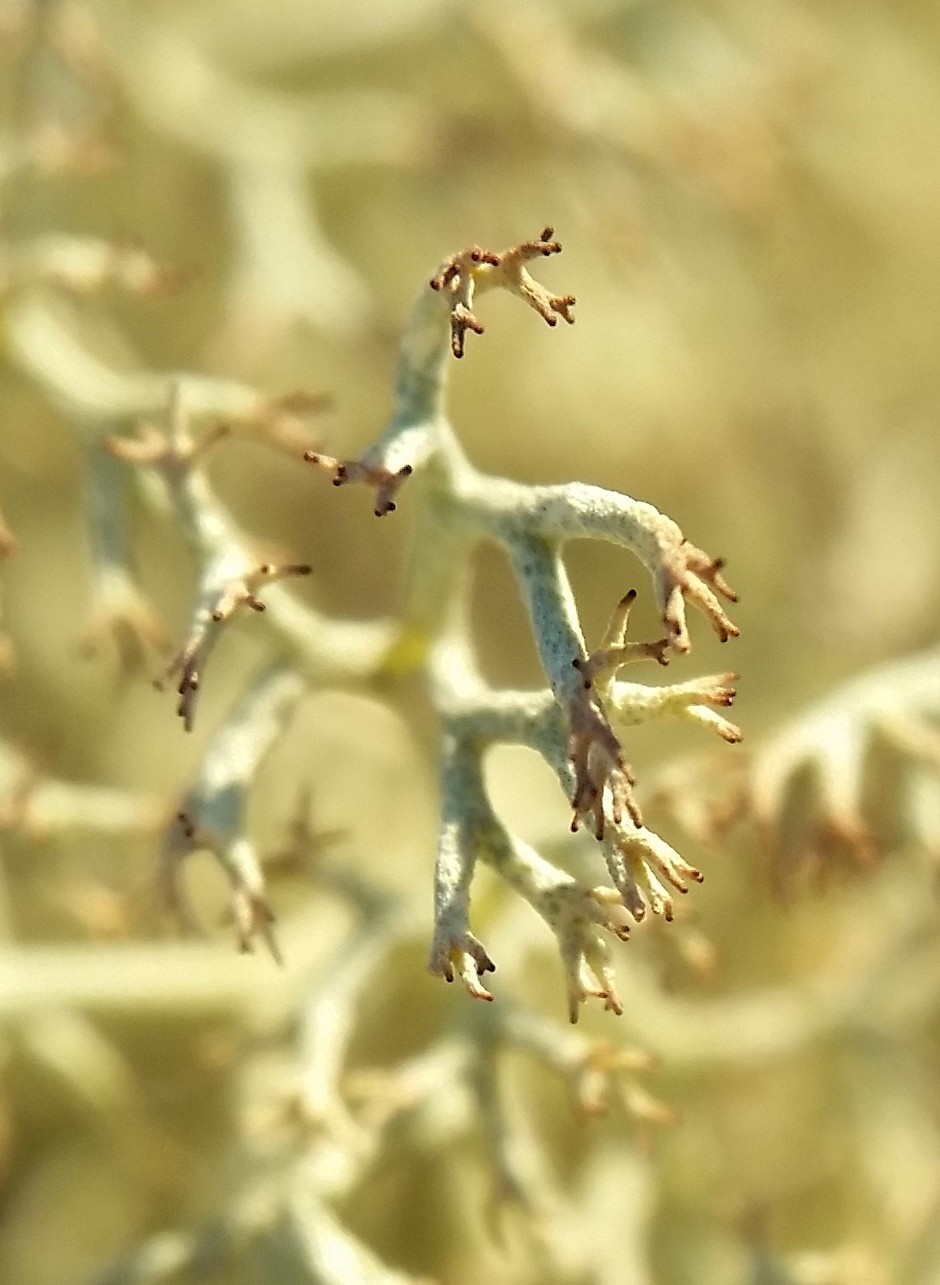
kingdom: Fungi
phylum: Ascomycota
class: Lecanoromycetes
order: Lecanorales
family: Cladoniaceae
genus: Cladonia
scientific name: Cladonia subtenuis
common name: Dixie reindeer lichen
